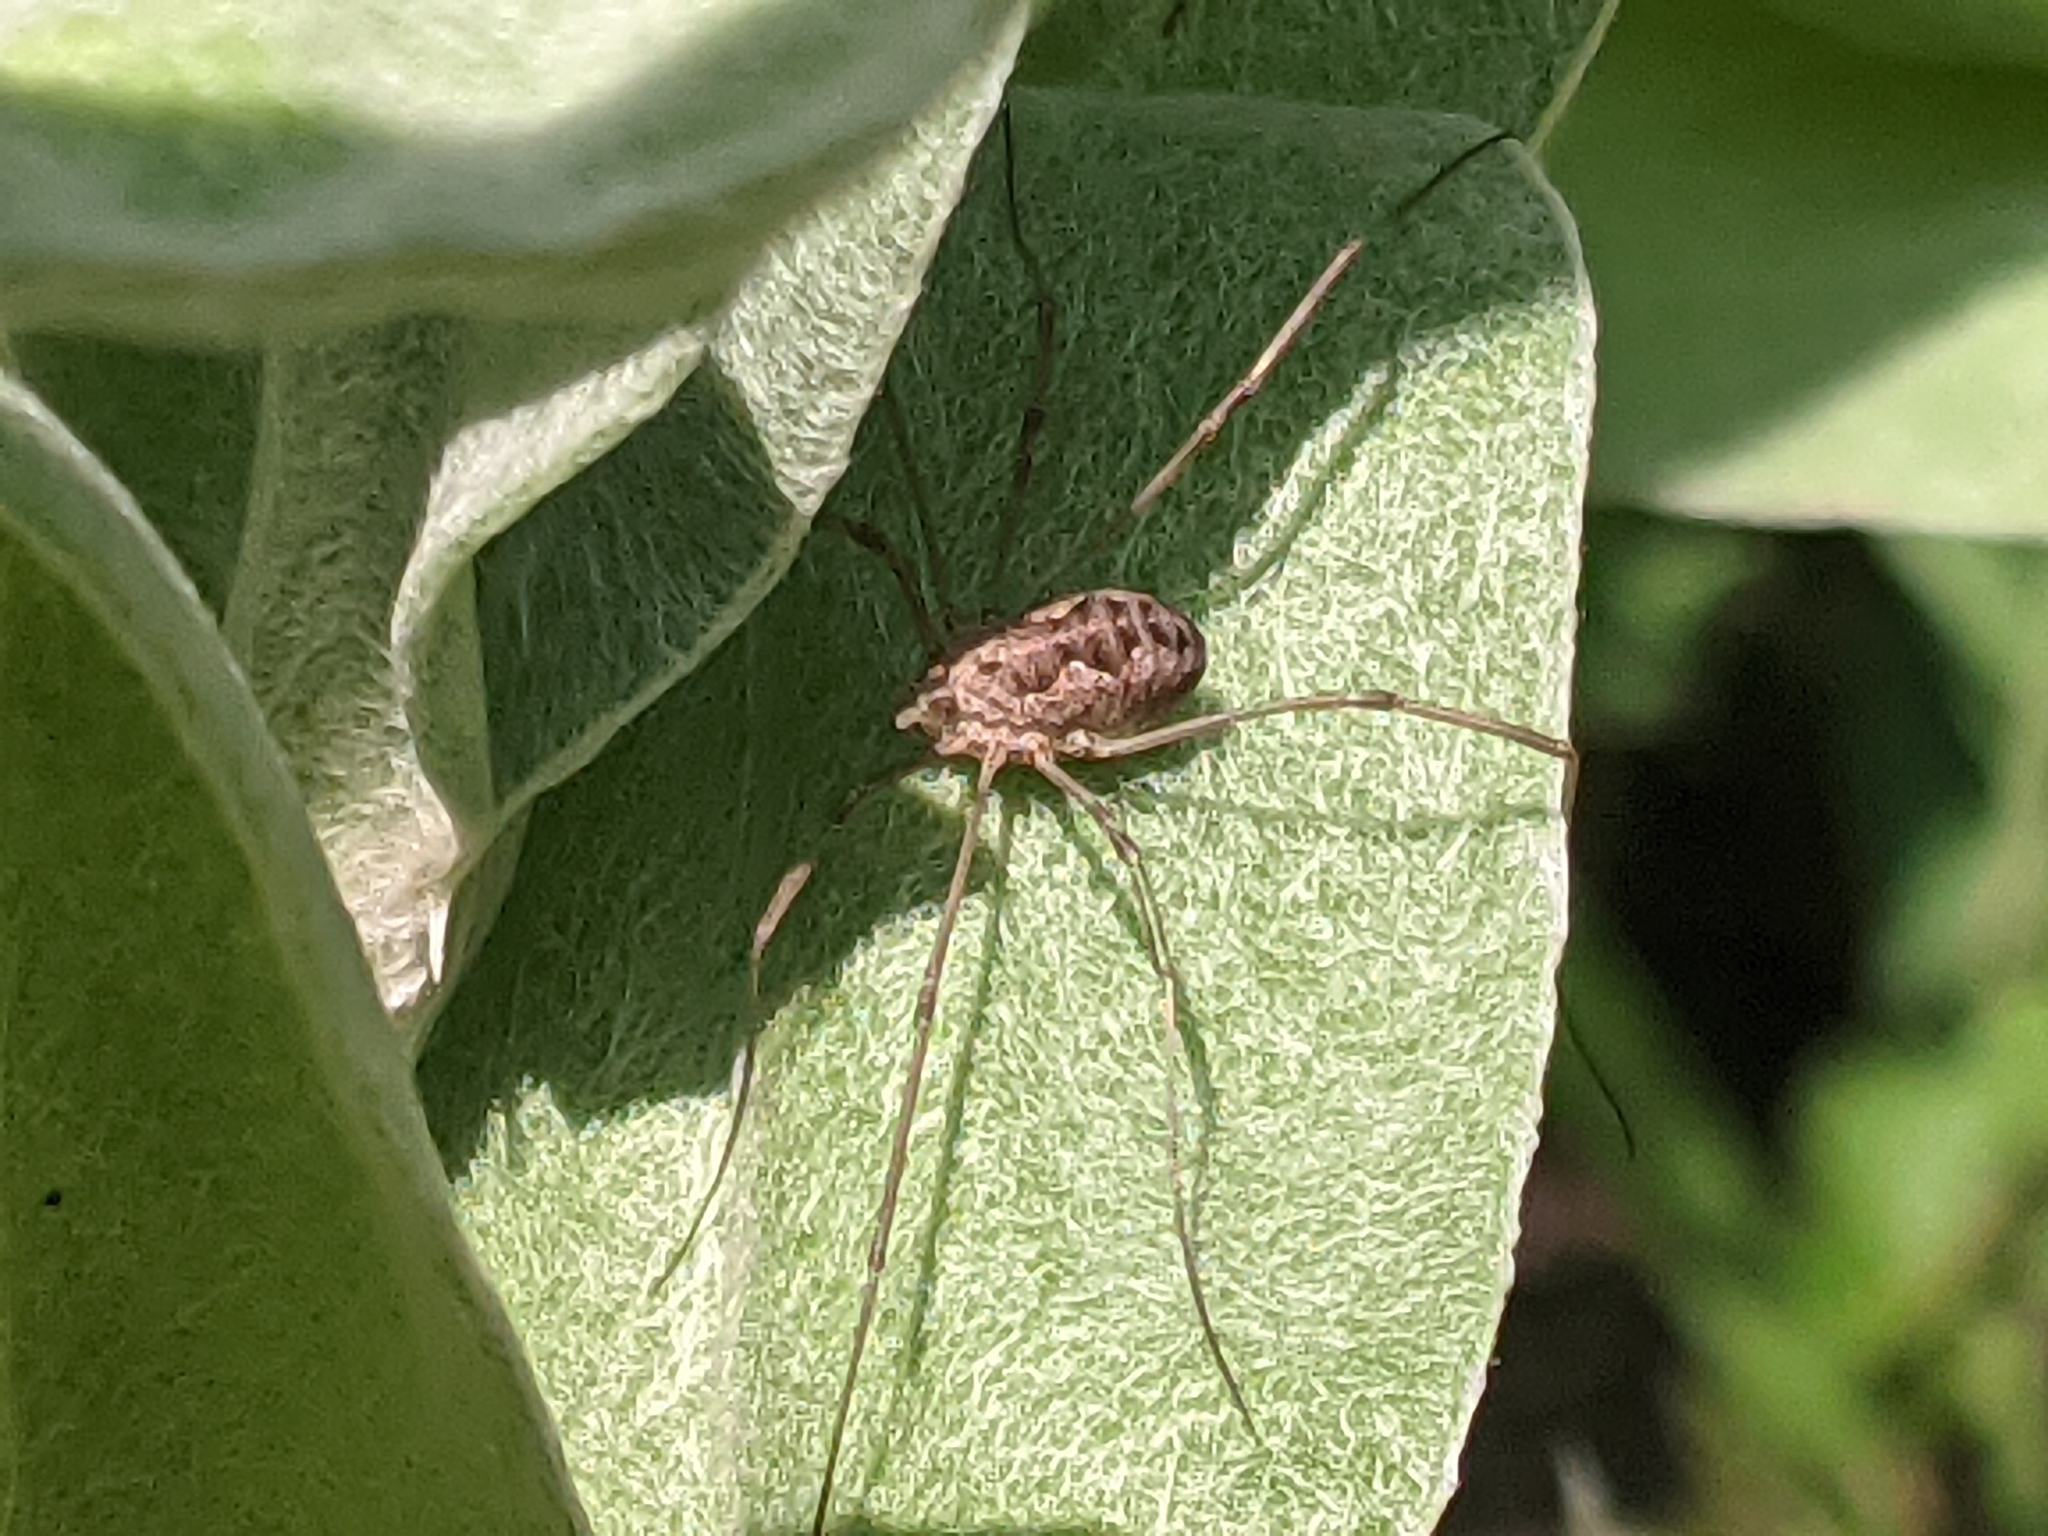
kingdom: Animalia
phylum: Arthropoda
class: Arachnida
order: Opiliones
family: Phalangiidae
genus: Phalangium
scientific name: Phalangium opilio
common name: Daddy longleg
